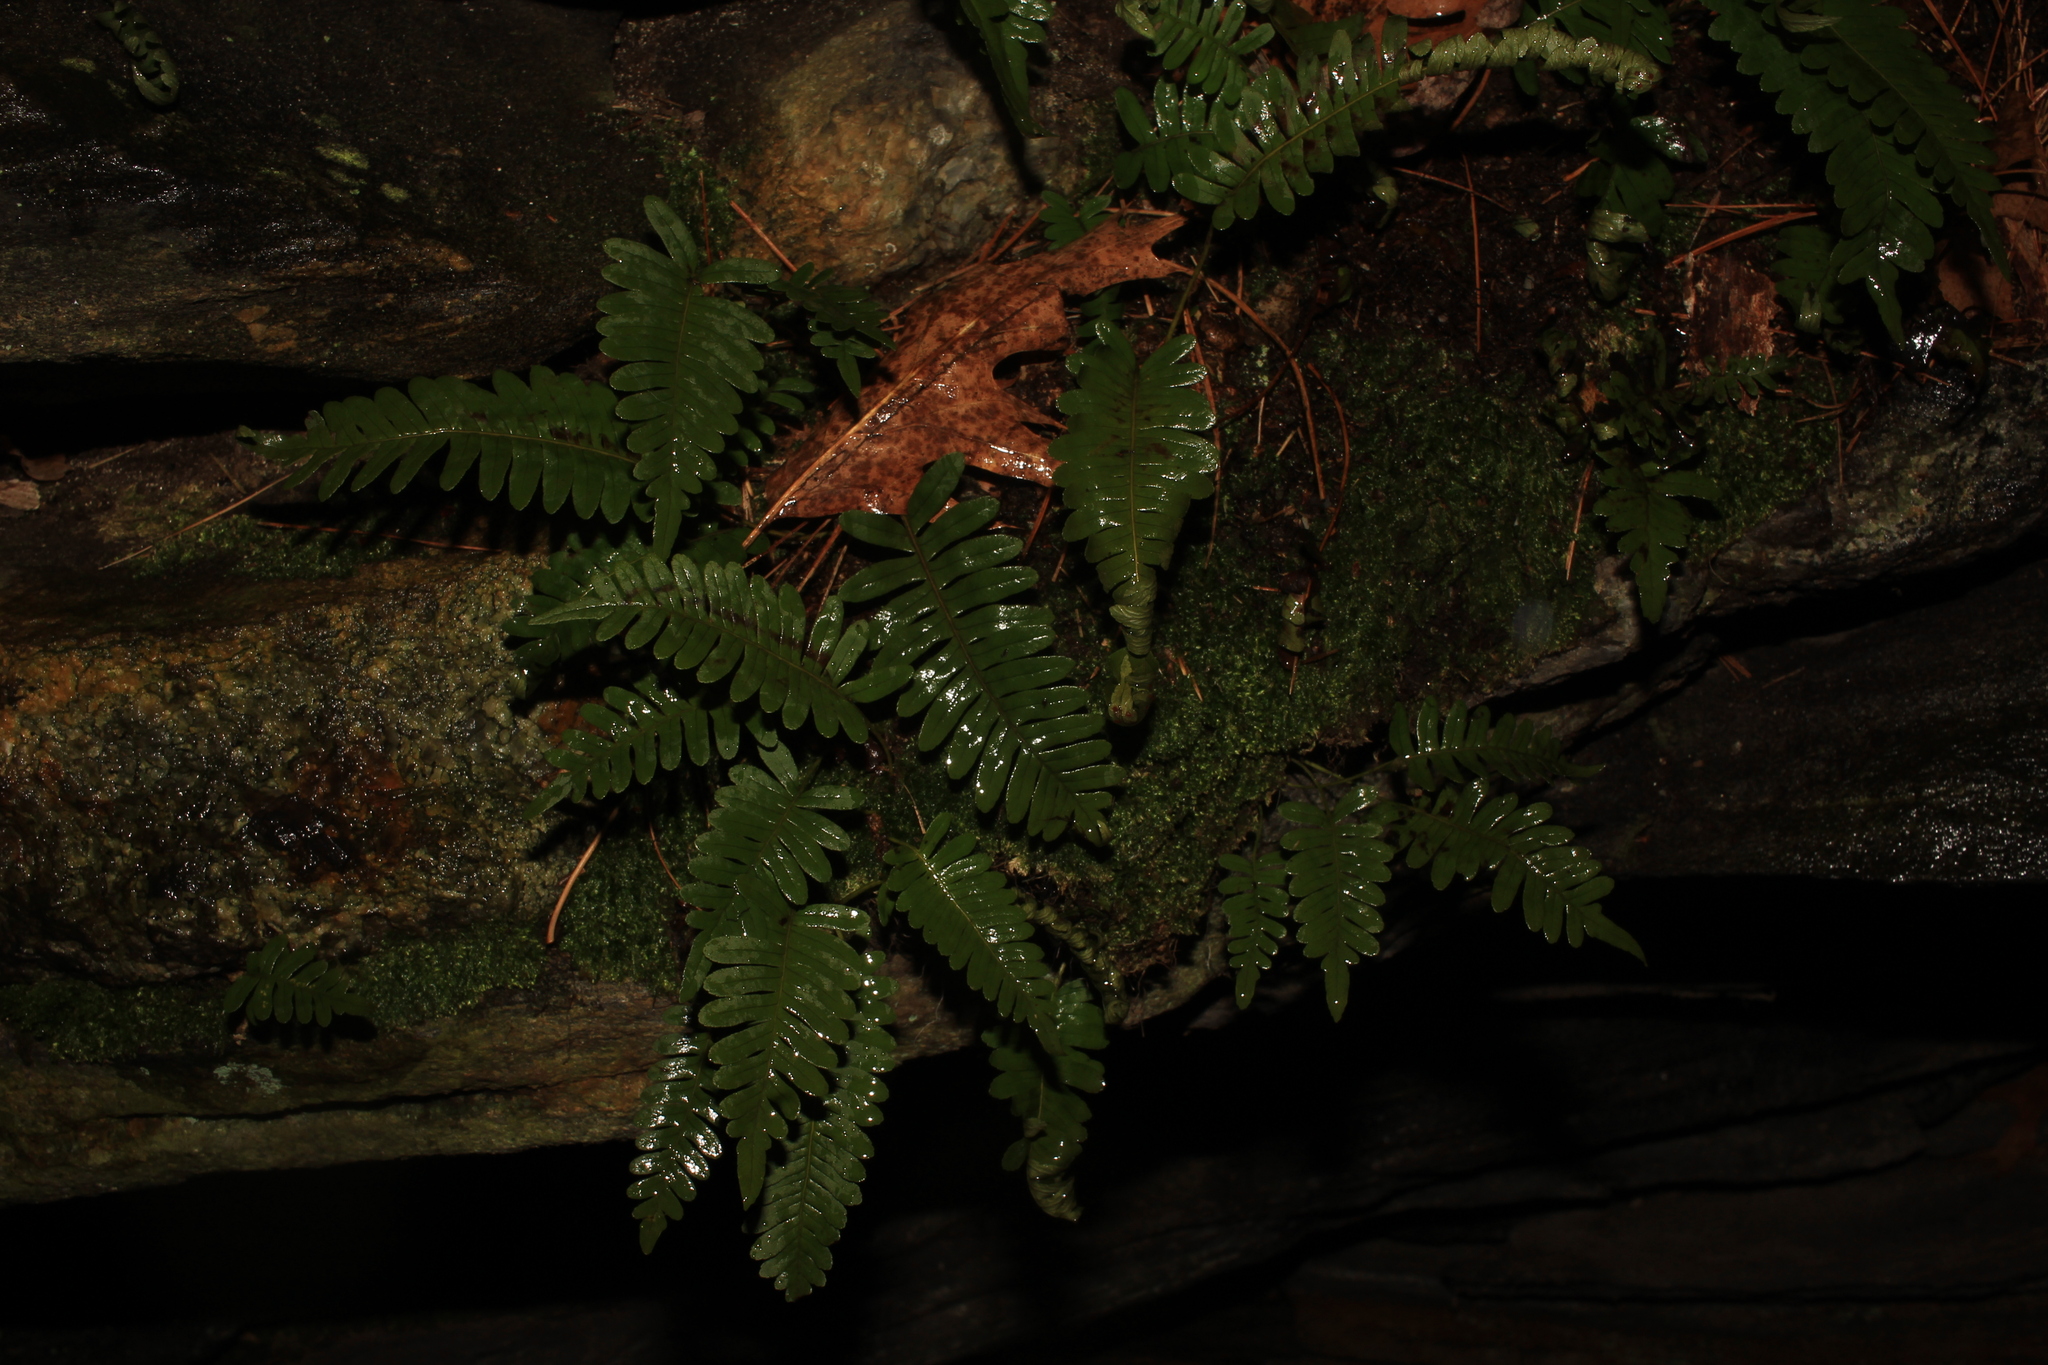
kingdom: Plantae
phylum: Tracheophyta
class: Polypodiopsida
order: Polypodiales
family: Polypodiaceae
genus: Polypodium
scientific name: Polypodium virginianum
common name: American wall fern
